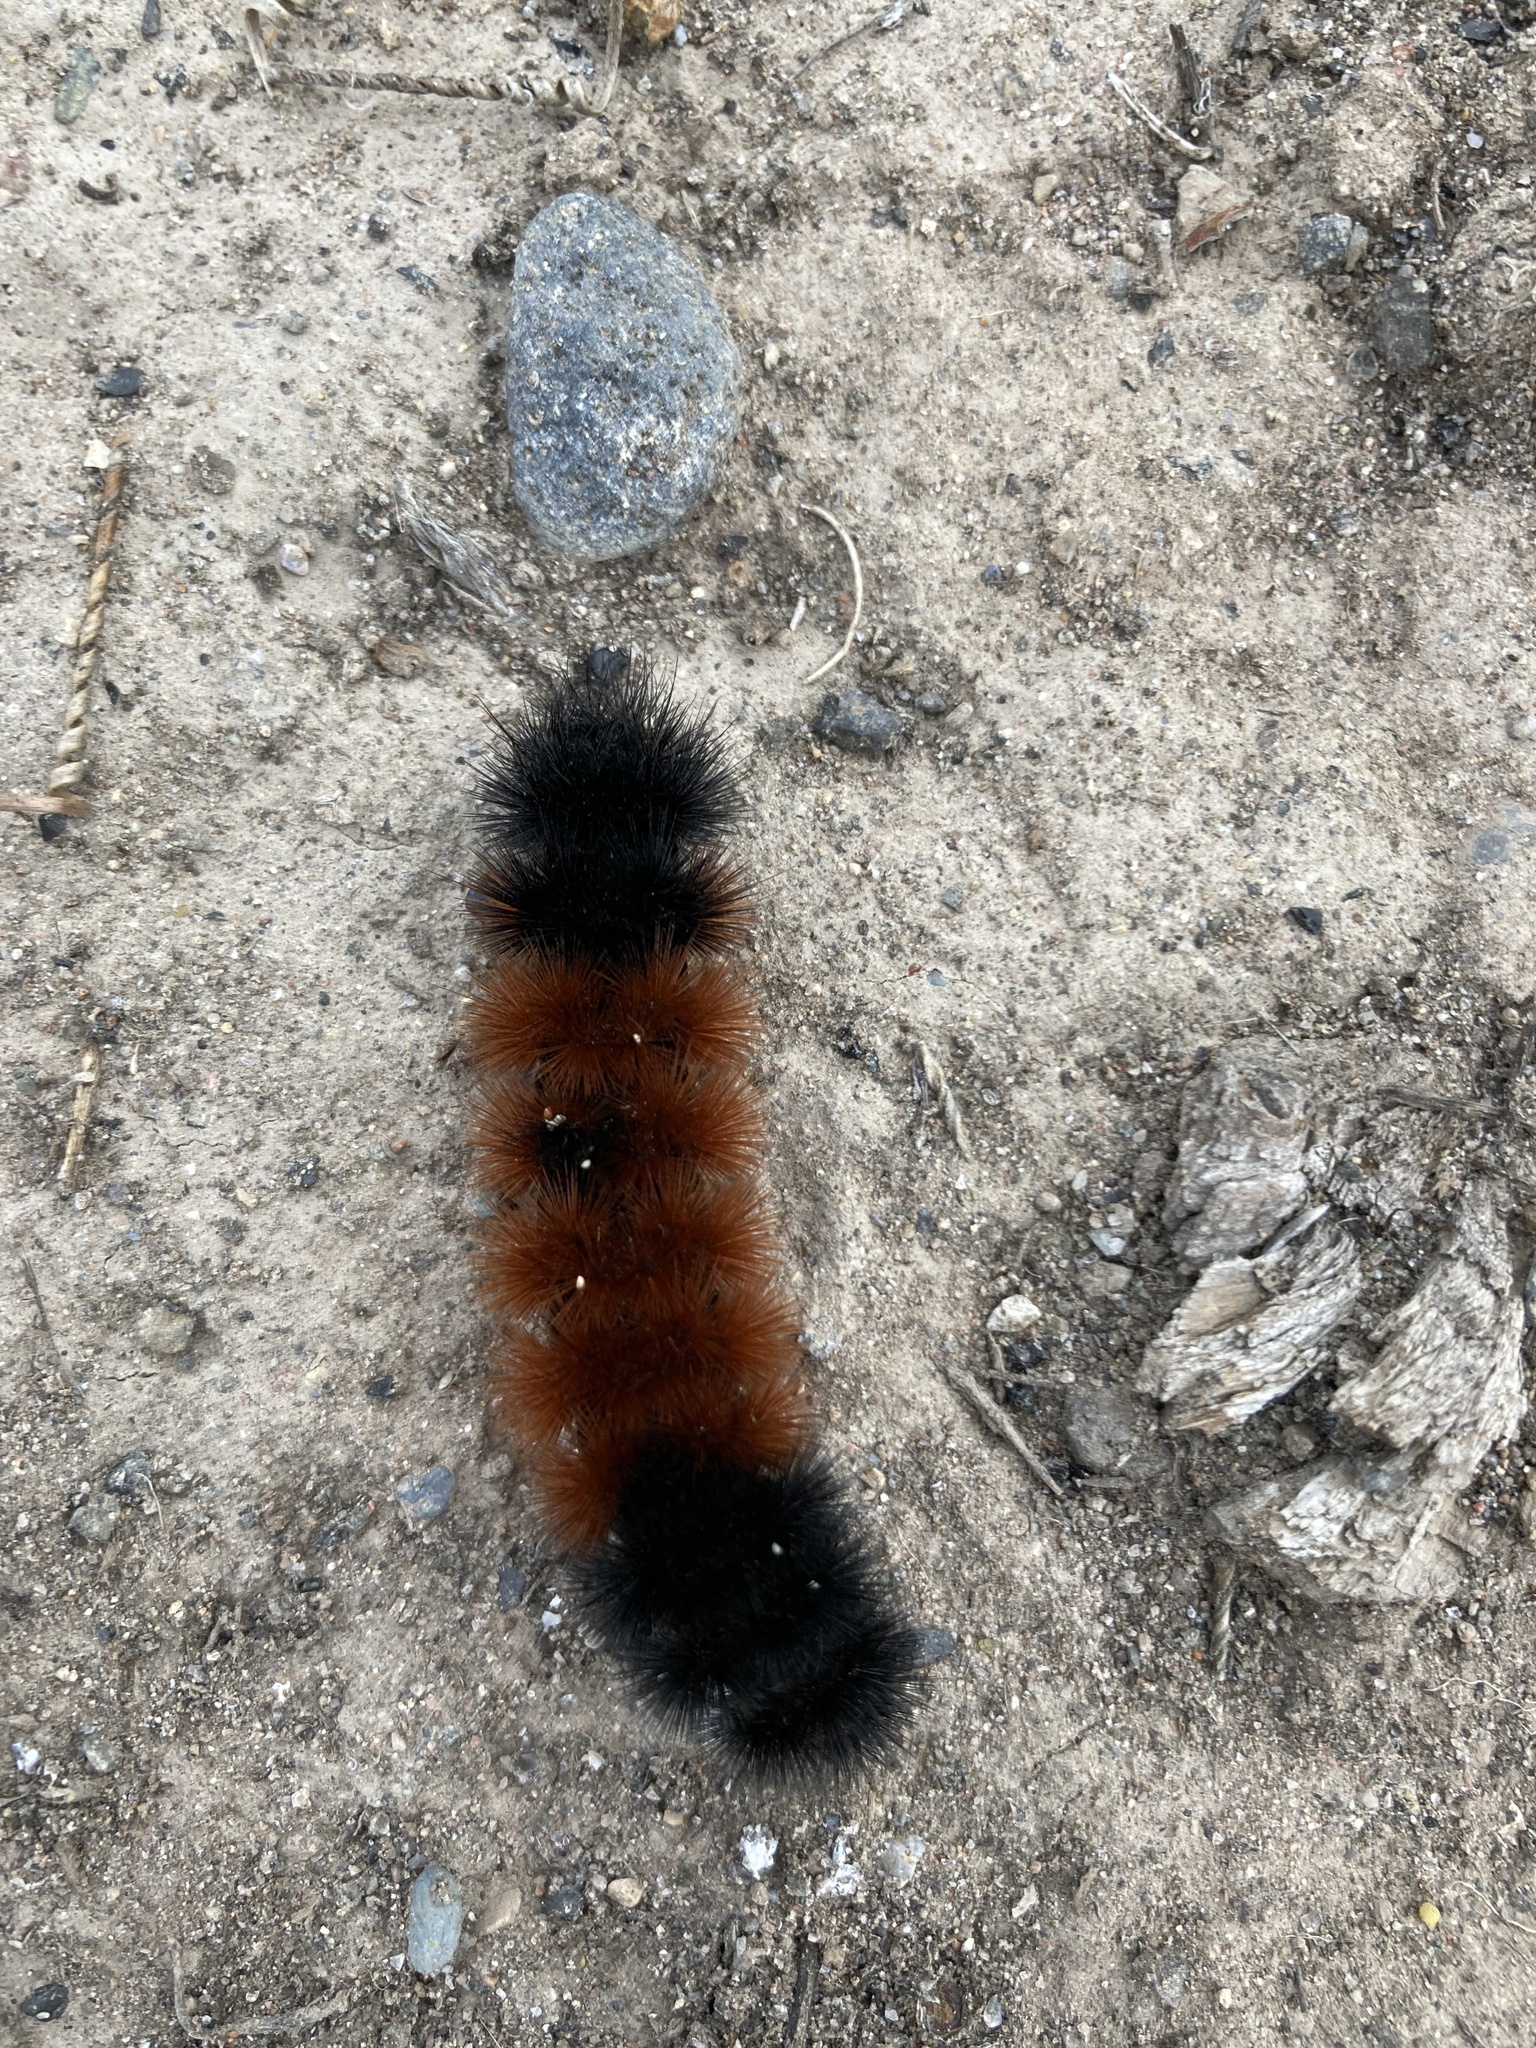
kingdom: Animalia
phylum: Arthropoda
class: Insecta
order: Lepidoptera
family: Erebidae
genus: Pyrrharctia
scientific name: Pyrrharctia isabella
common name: Isabella tiger moth
